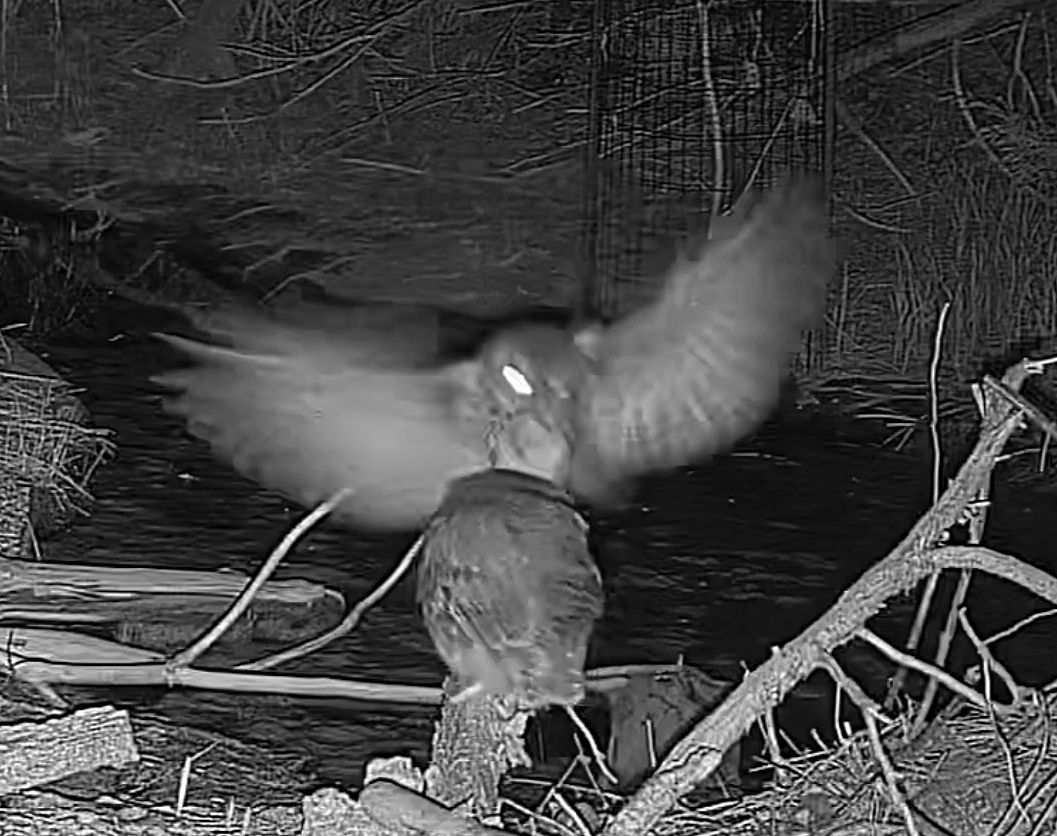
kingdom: Animalia
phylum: Chordata
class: Aves
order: Strigiformes
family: Strigidae
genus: Megascops
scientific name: Megascops asio
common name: Eastern screech-owl
